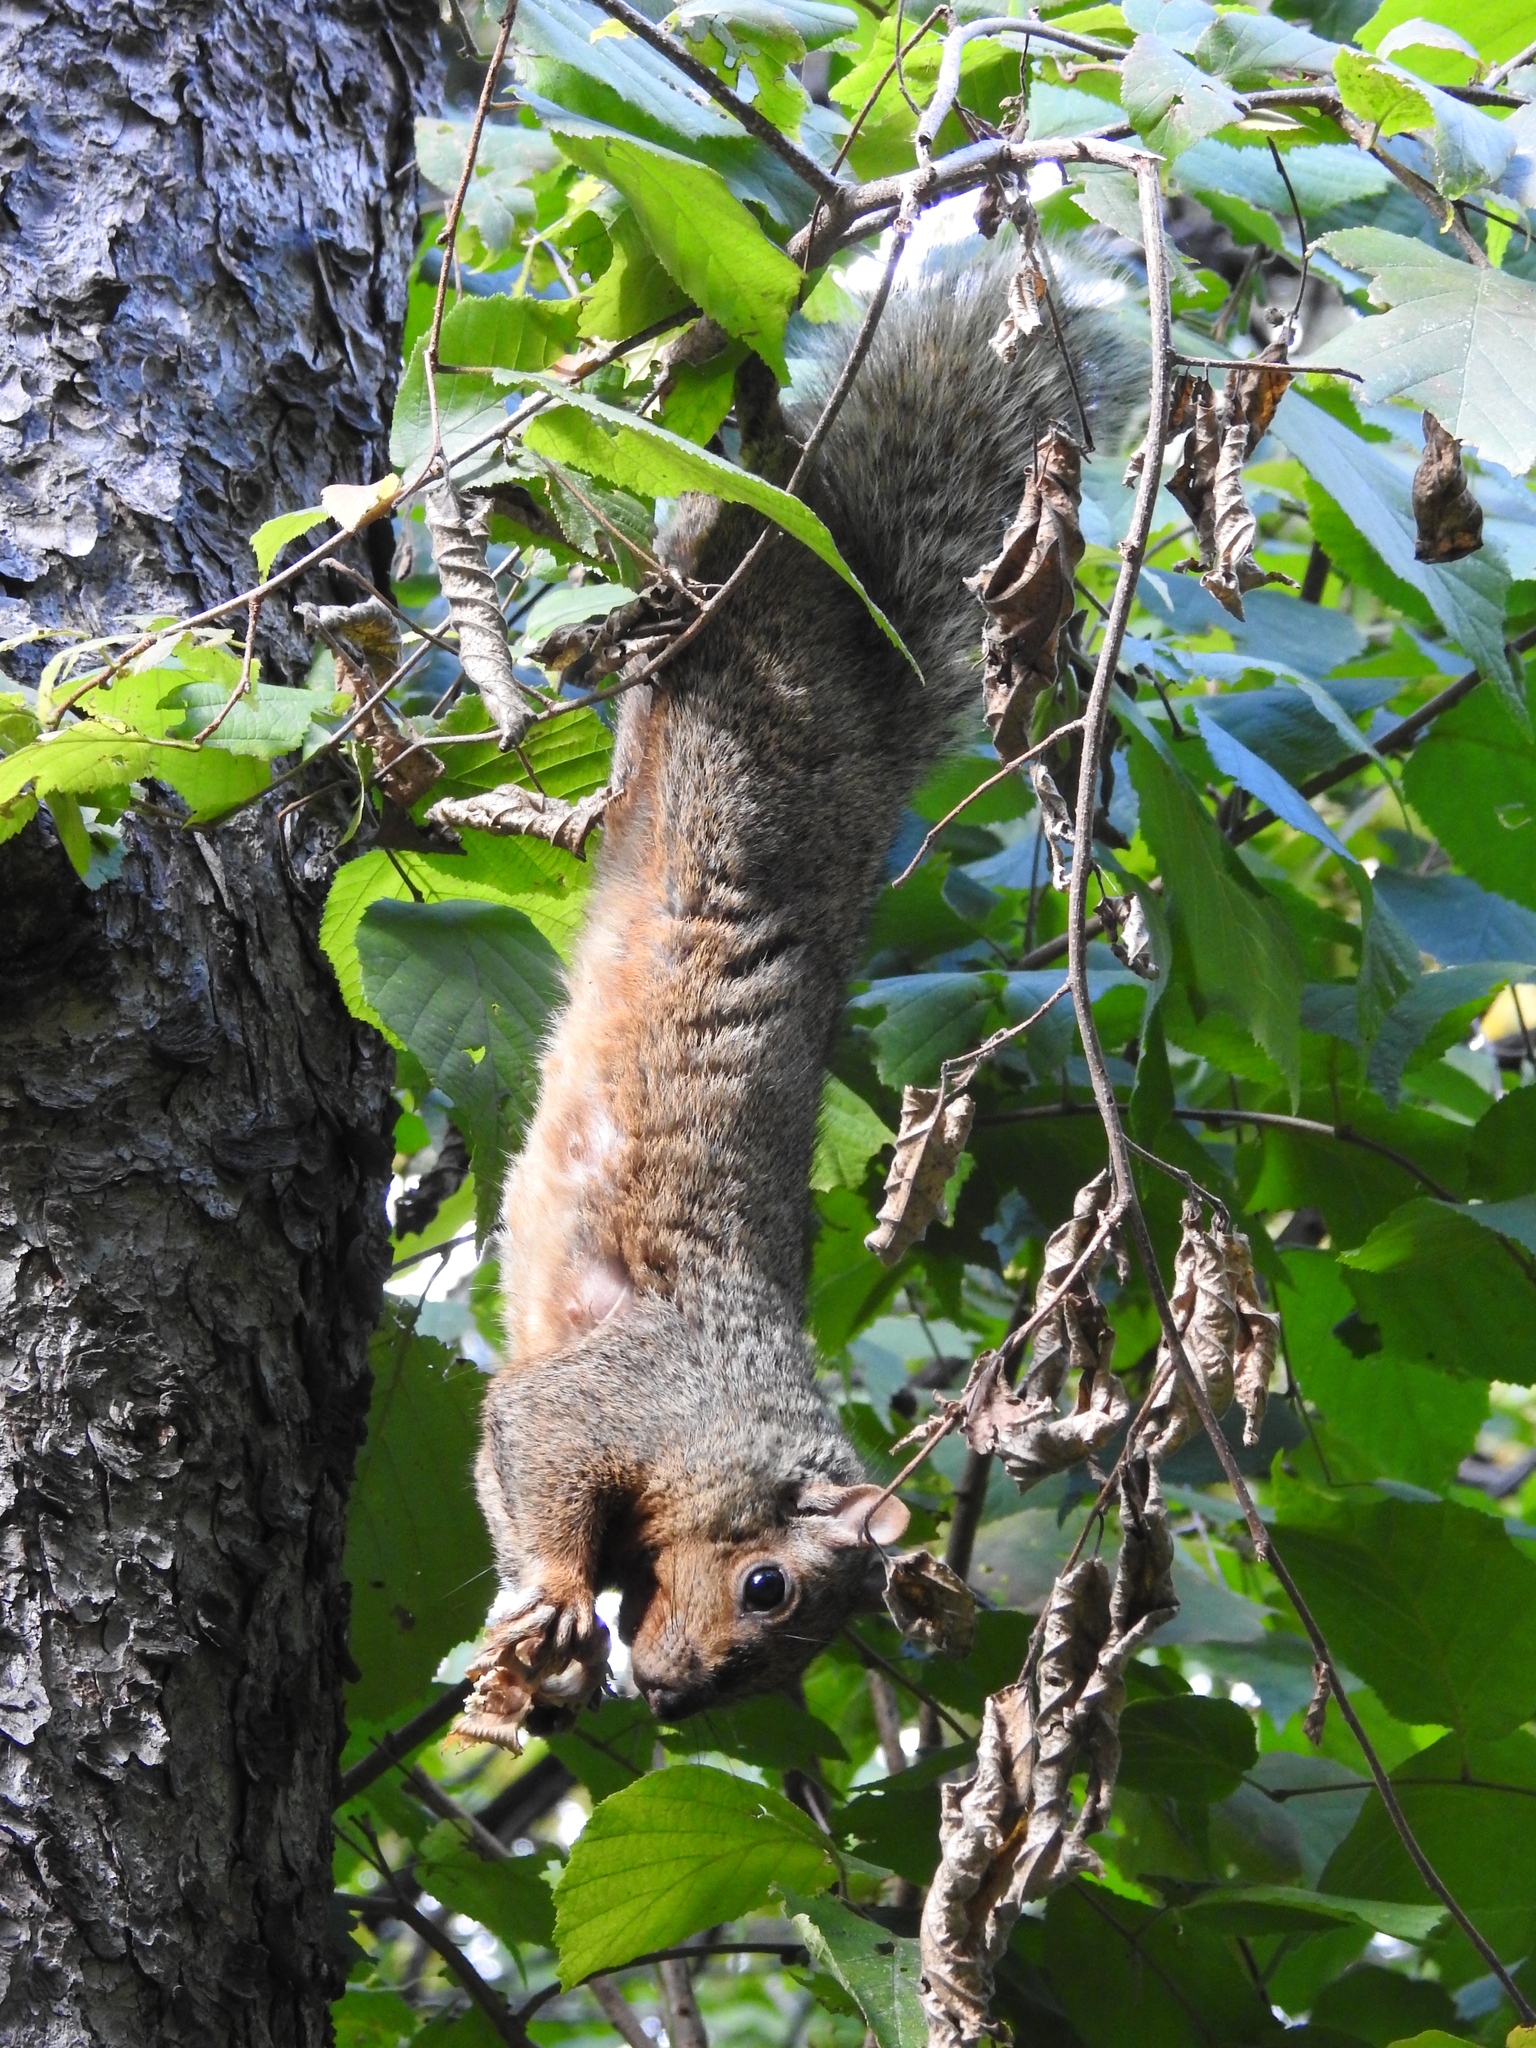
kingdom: Animalia
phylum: Chordata
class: Mammalia
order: Rodentia
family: Sciuridae
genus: Sciurus
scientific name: Sciurus carolinensis
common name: Eastern gray squirrel
